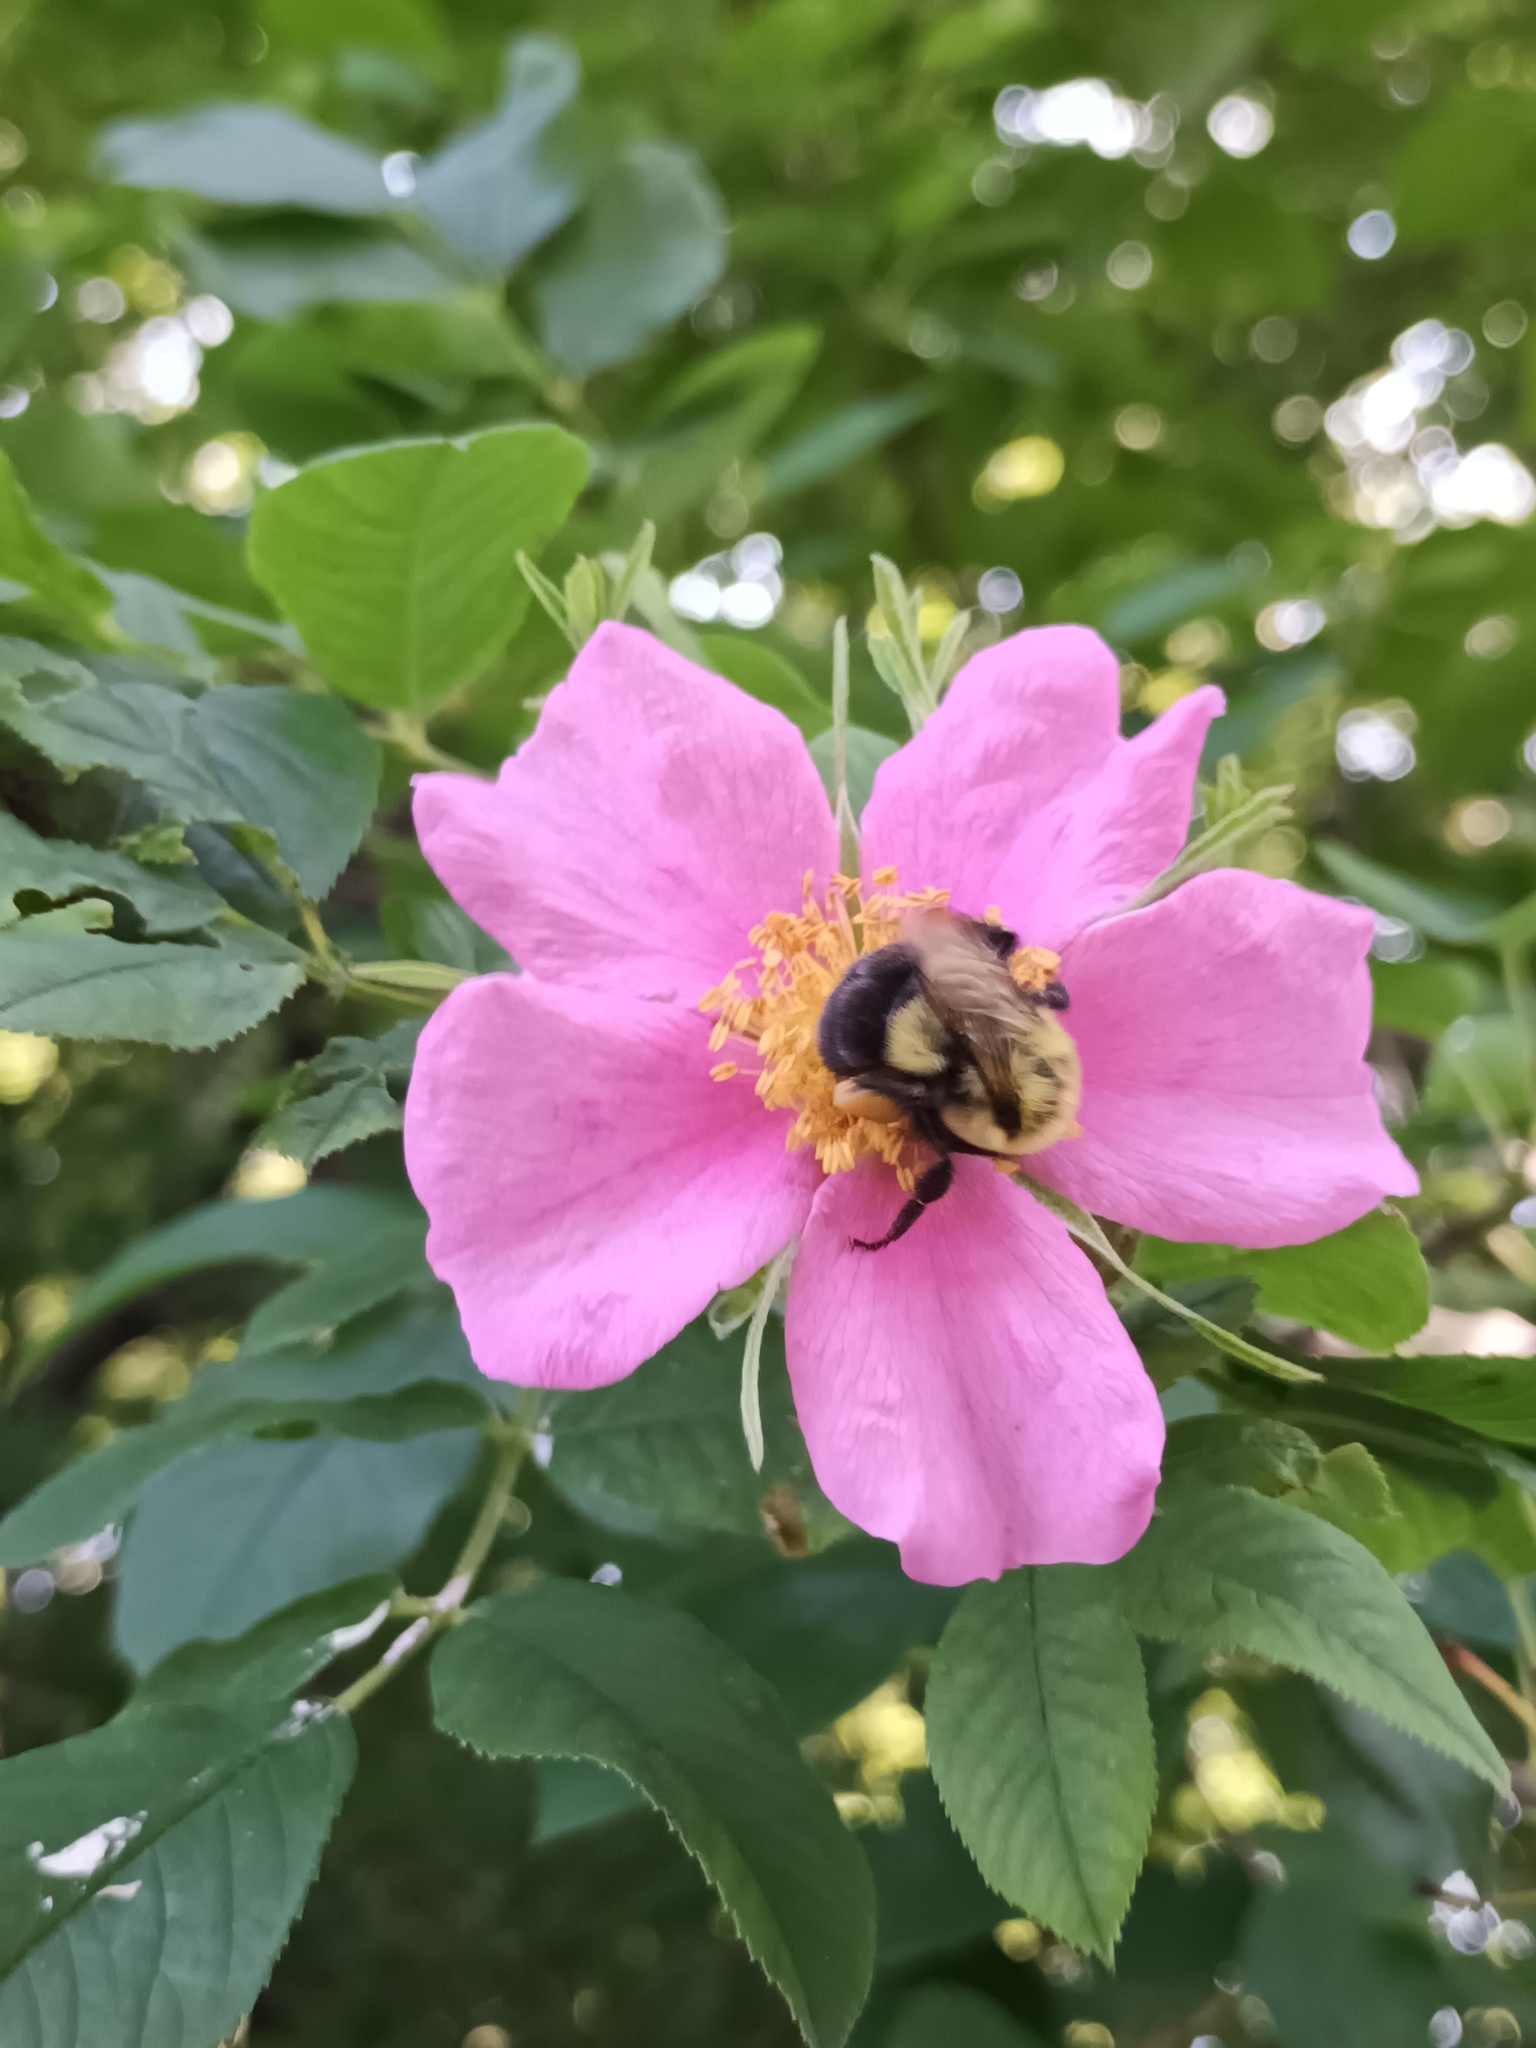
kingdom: Animalia
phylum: Arthropoda
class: Insecta
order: Hymenoptera
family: Apidae
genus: Bombus
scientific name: Bombus impatiens
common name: Common eastern bumble bee
